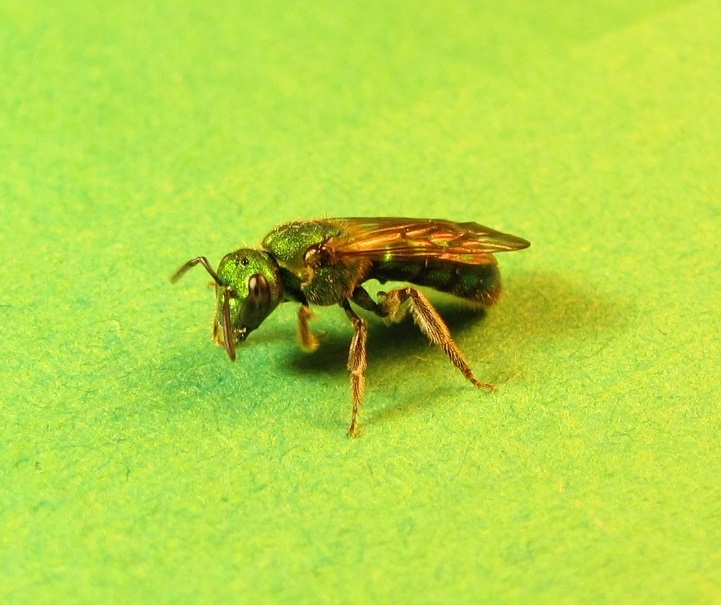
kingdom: Animalia
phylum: Arthropoda
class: Insecta
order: Hymenoptera
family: Halictidae
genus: Augochlora
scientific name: Augochlora pura
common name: Pure green sweat bee
